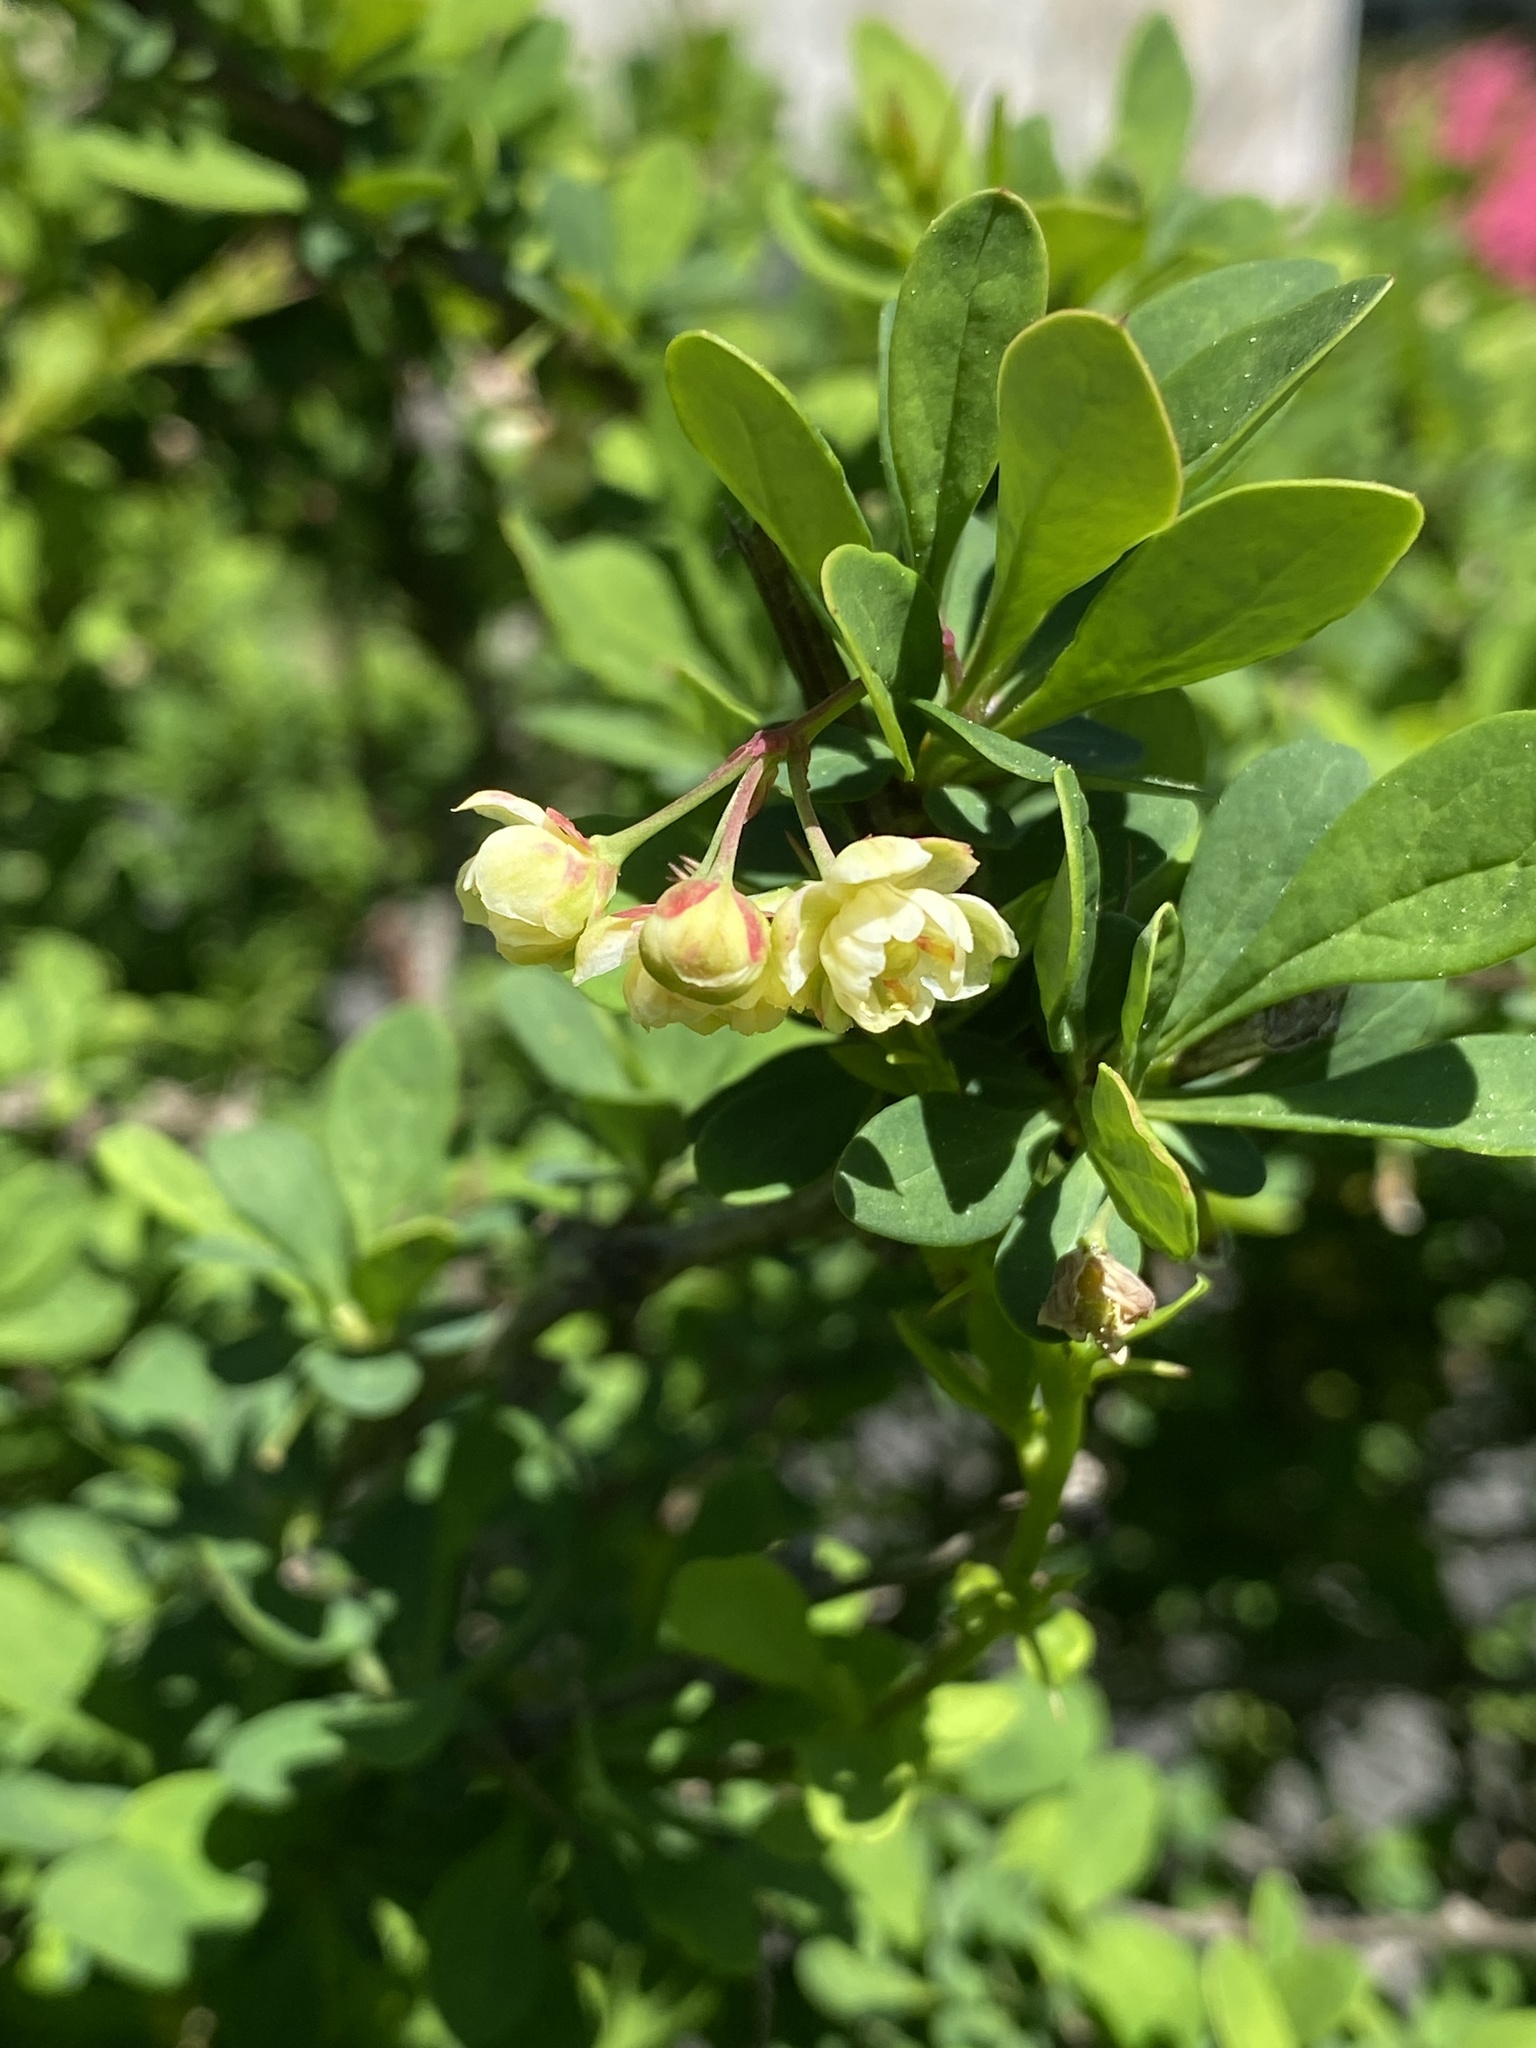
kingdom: Plantae
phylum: Tracheophyta
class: Magnoliopsida
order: Ranunculales
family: Berberidaceae
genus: Berberis
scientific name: Berberis thunbergii
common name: Japanese barberry
